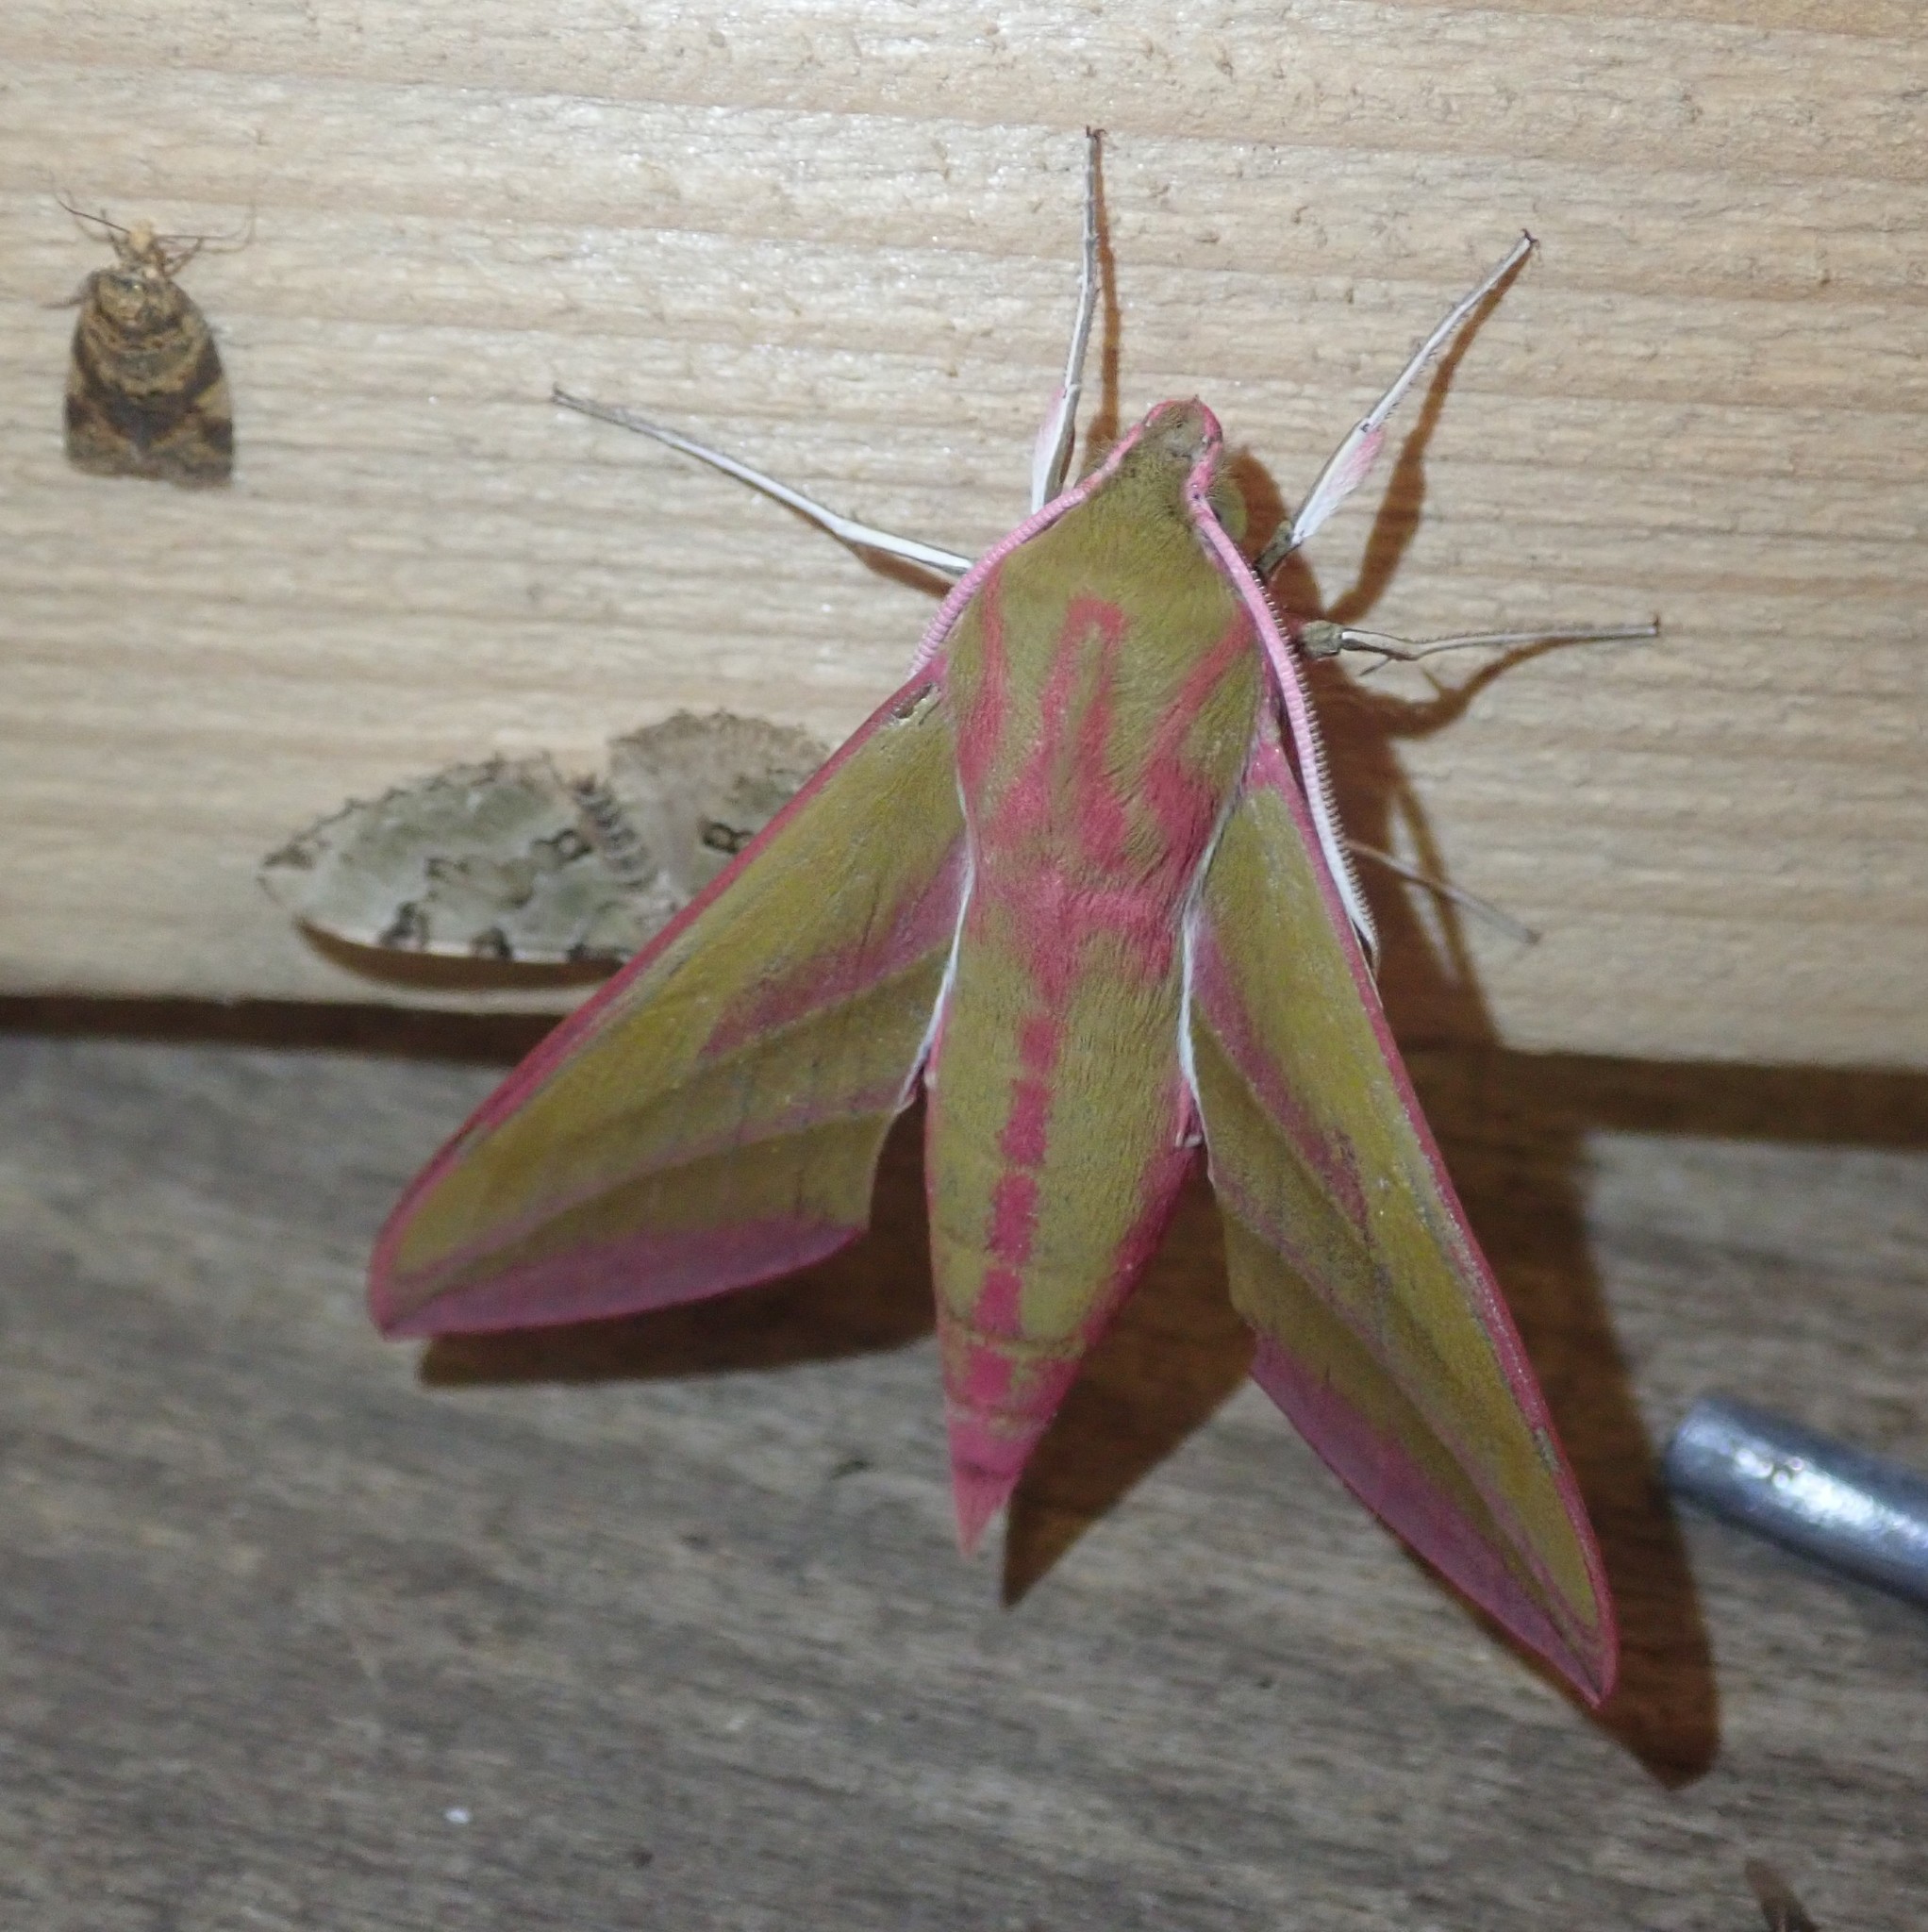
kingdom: Animalia
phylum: Arthropoda
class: Insecta
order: Lepidoptera
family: Sphingidae
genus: Deilephila
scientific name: Deilephila elpenor
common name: Elephant hawk-moth
